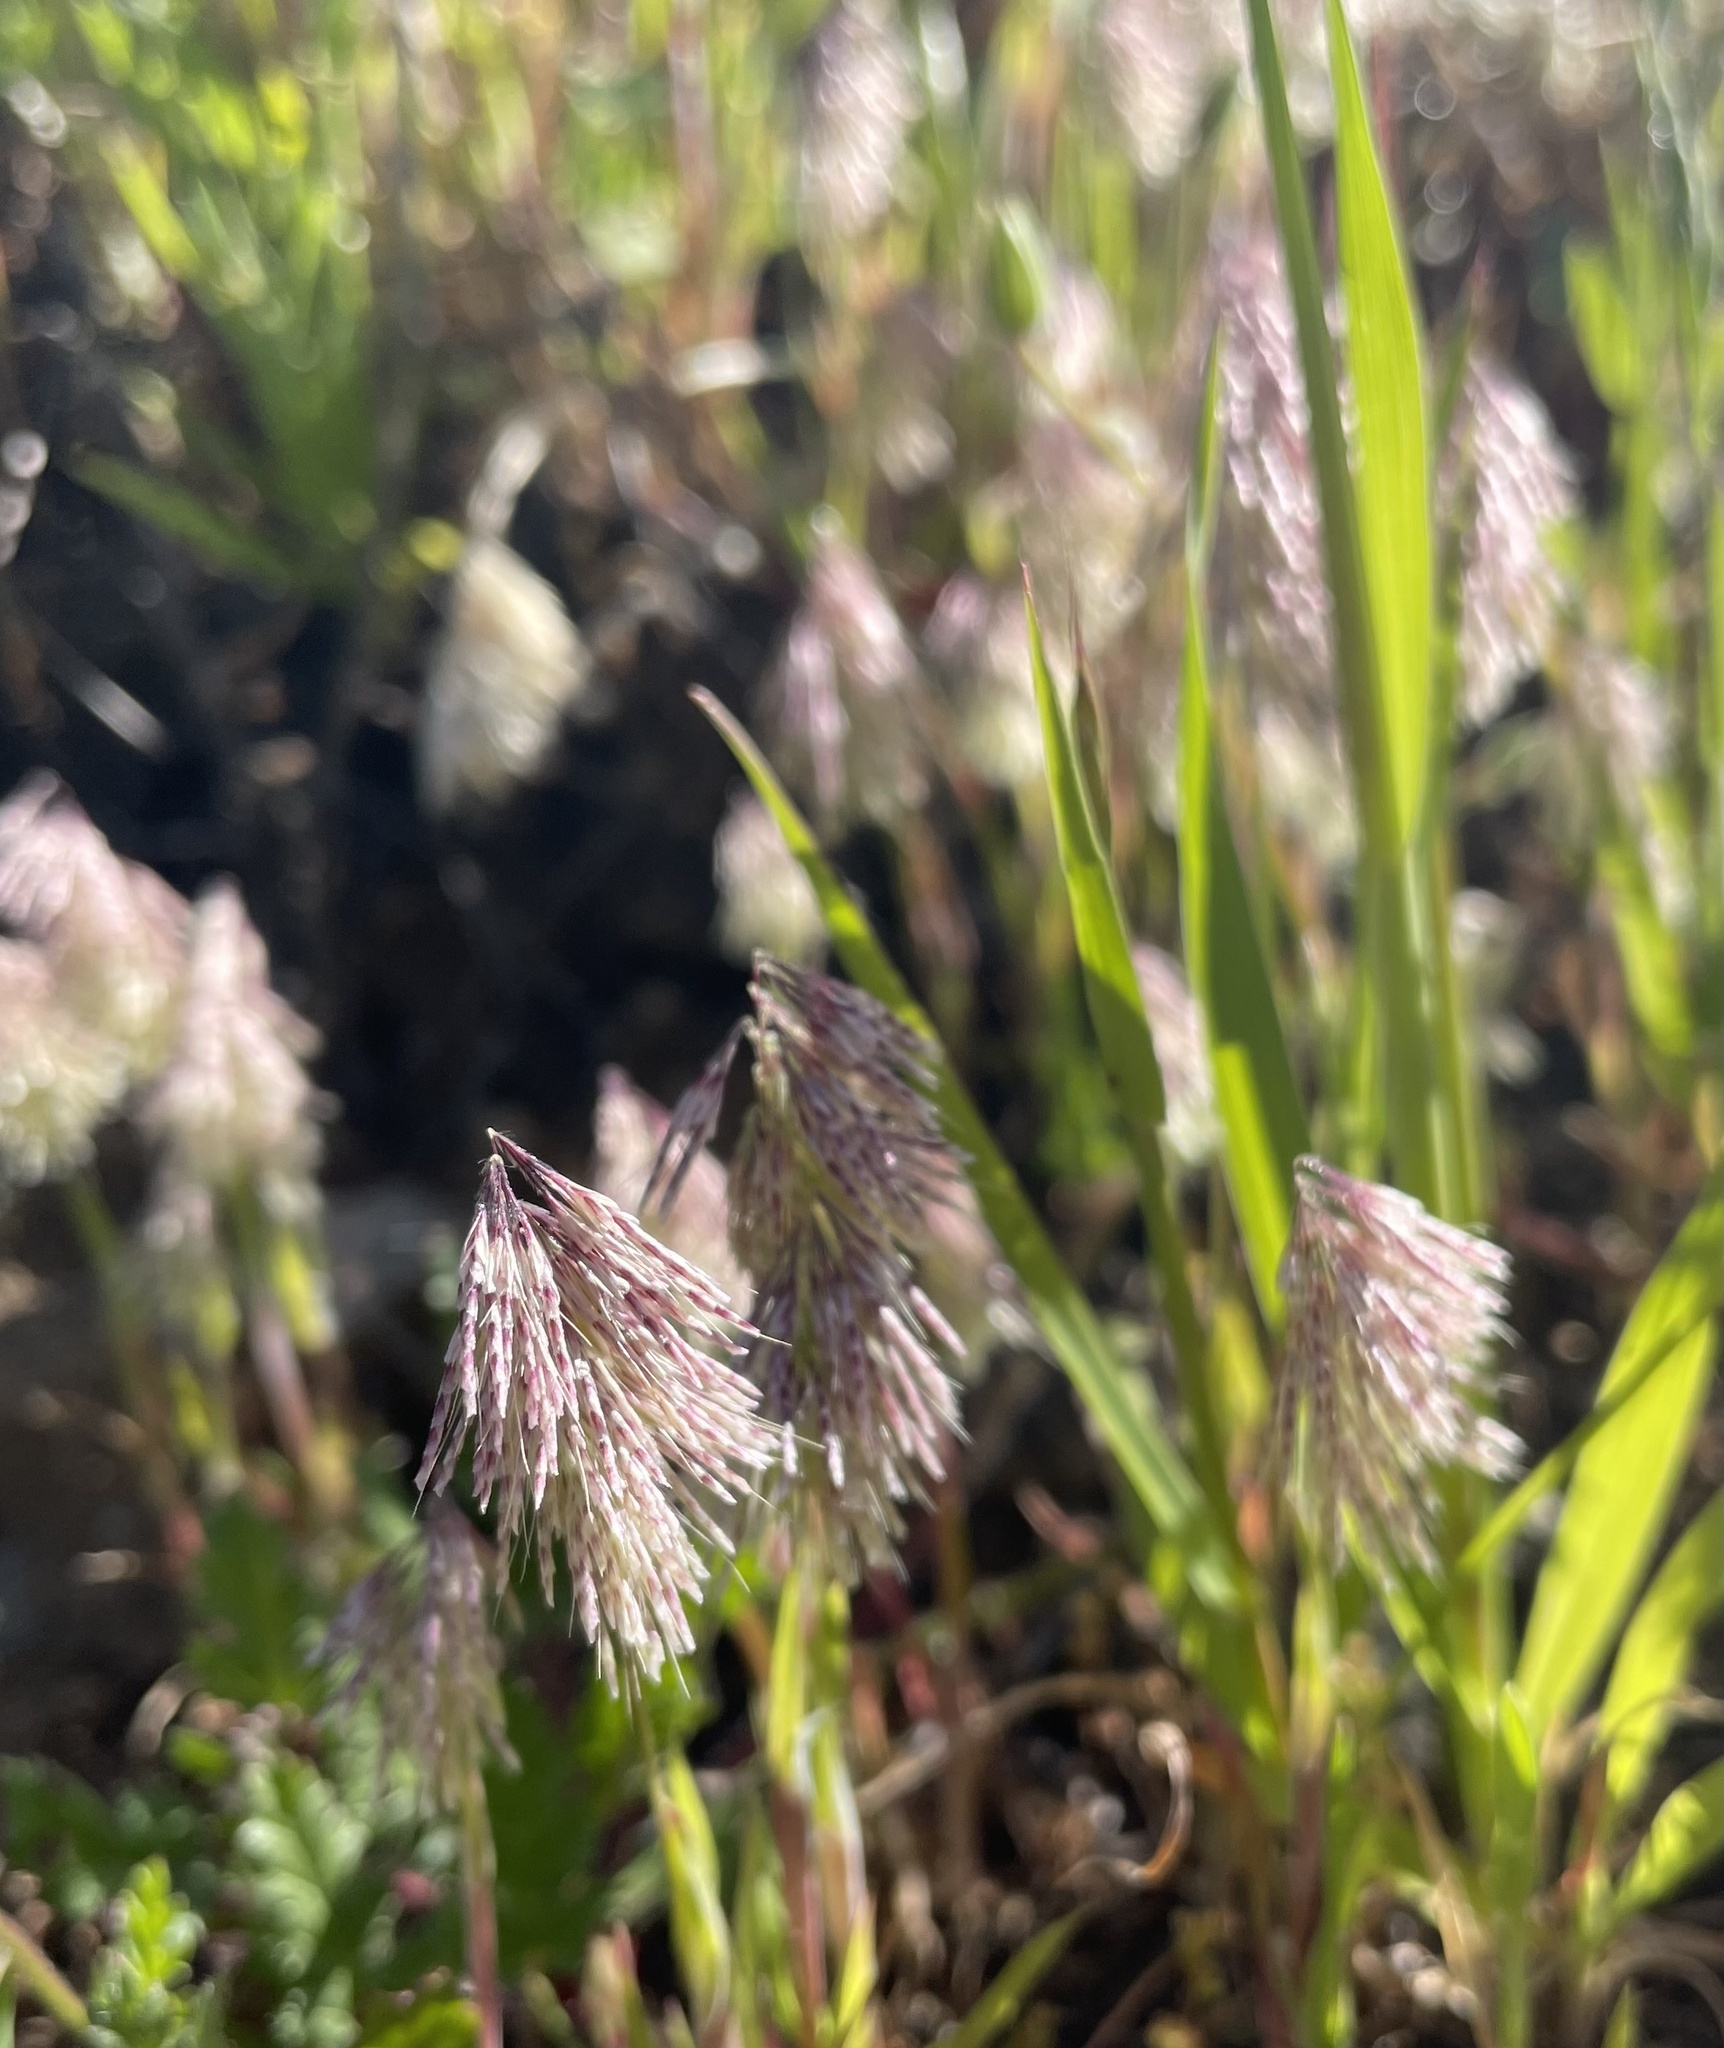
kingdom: Plantae
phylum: Tracheophyta
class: Liliopsida
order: Poales
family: Poaceae
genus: Lamarckia
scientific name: Lamarckia aurea
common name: Golden dog's-tail
